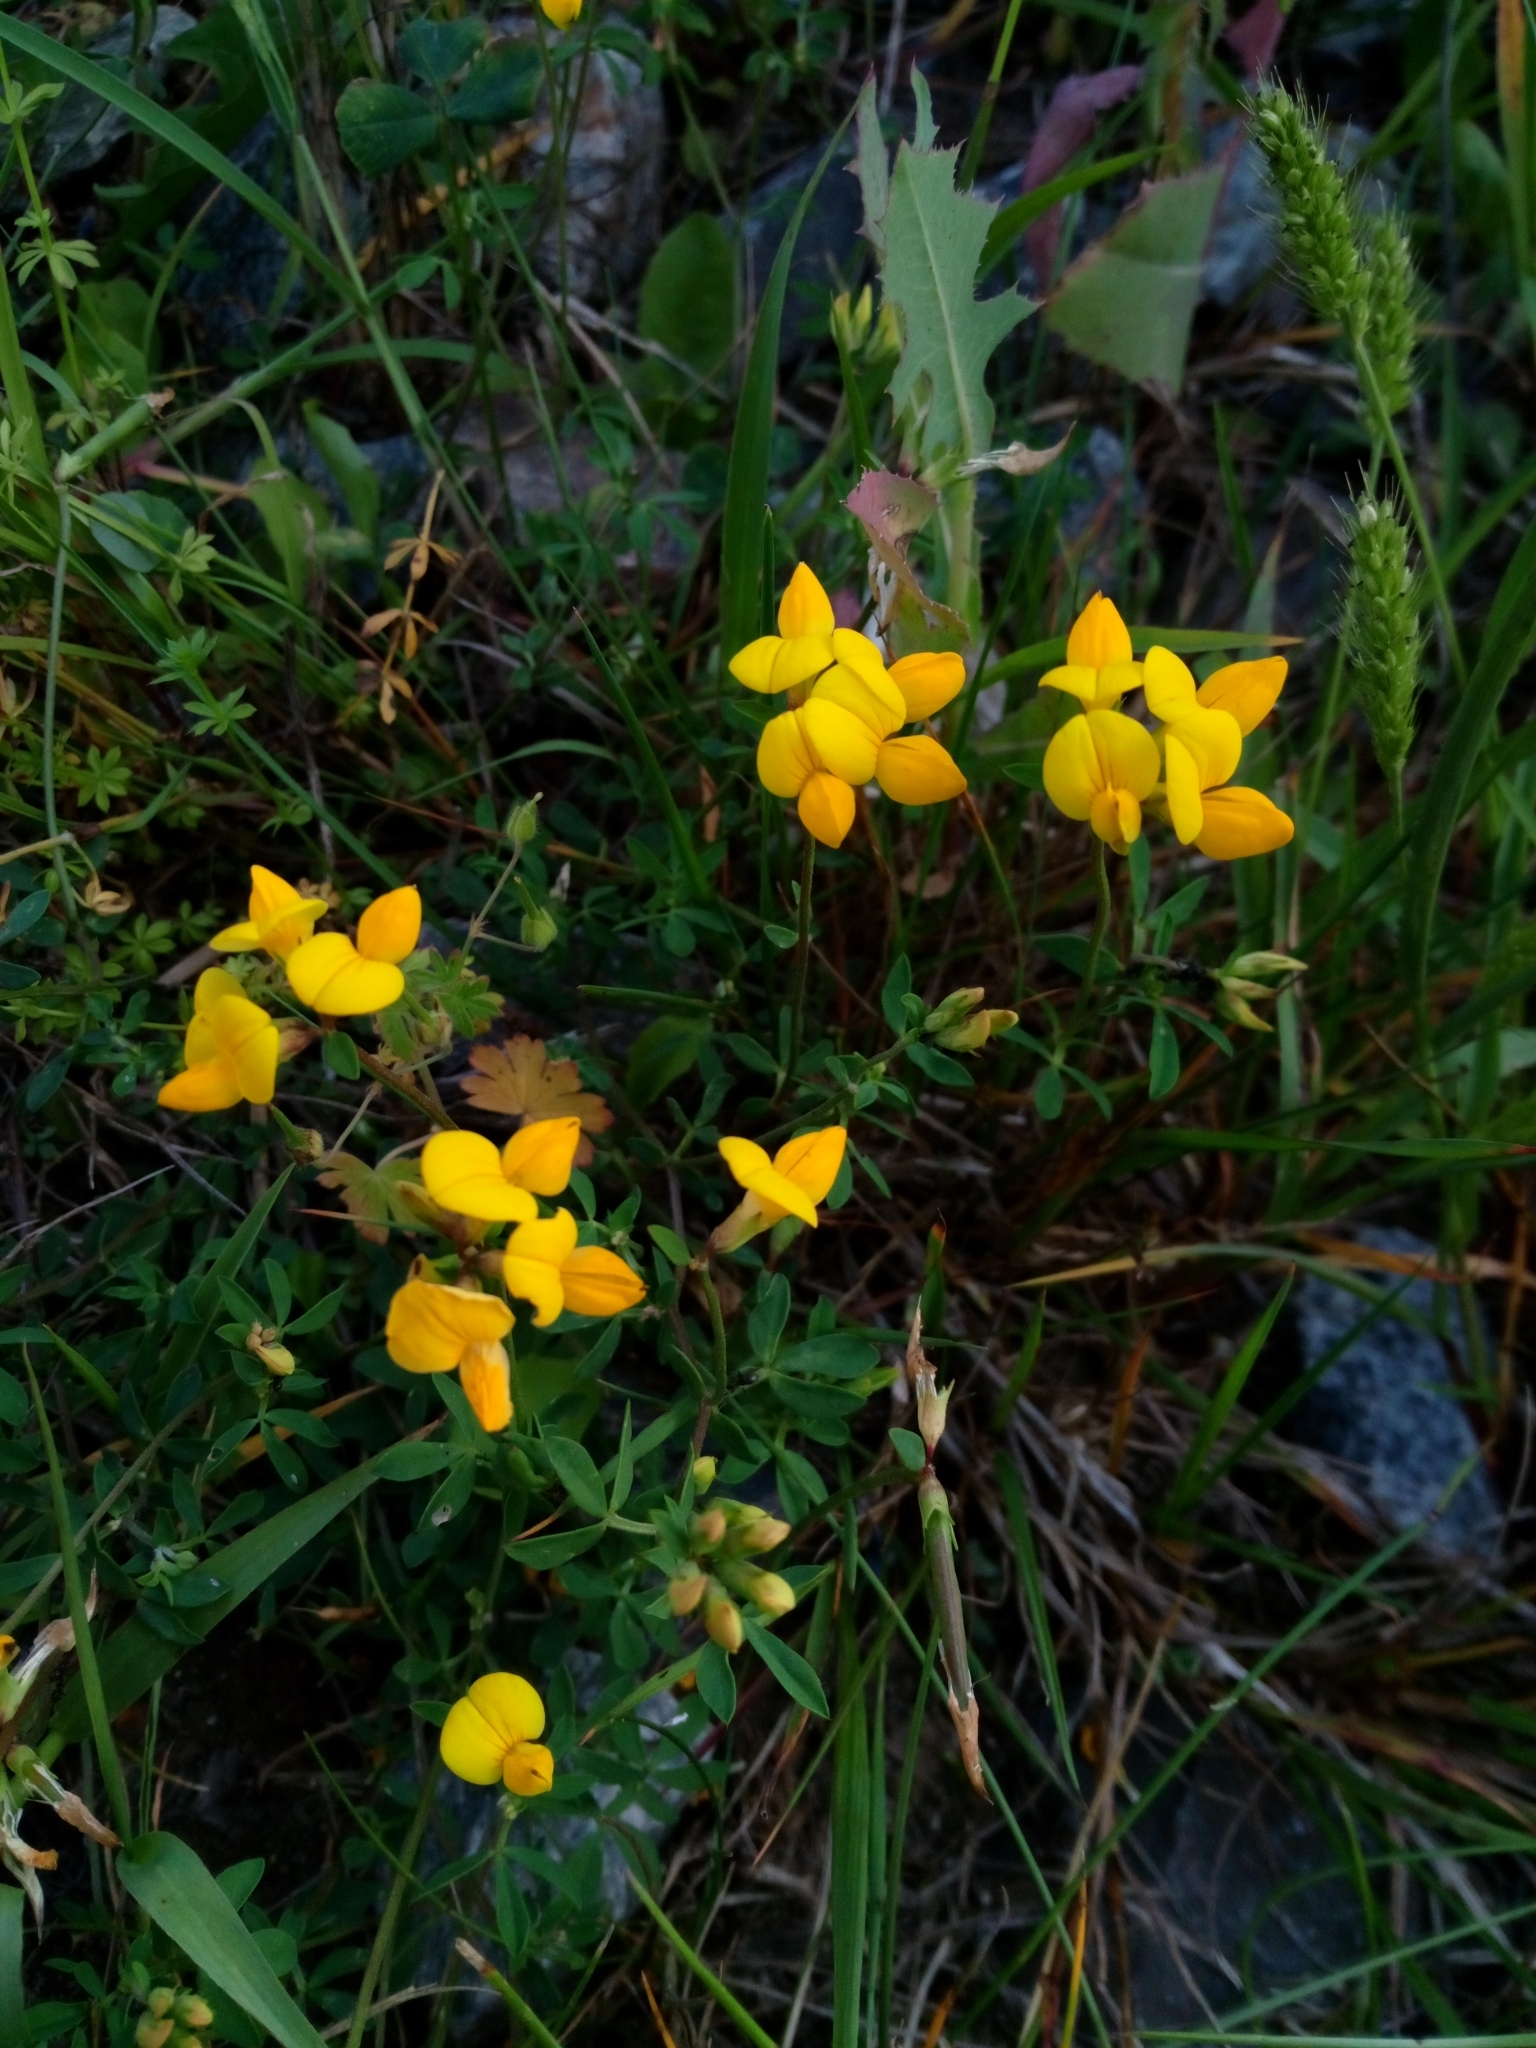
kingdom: Plantae
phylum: Tracheophyta
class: Magnoliopsida
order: Fabales
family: Fabaceae
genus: Lotus
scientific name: Lotus corniculatus
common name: Common bird's-foot-trefoil
